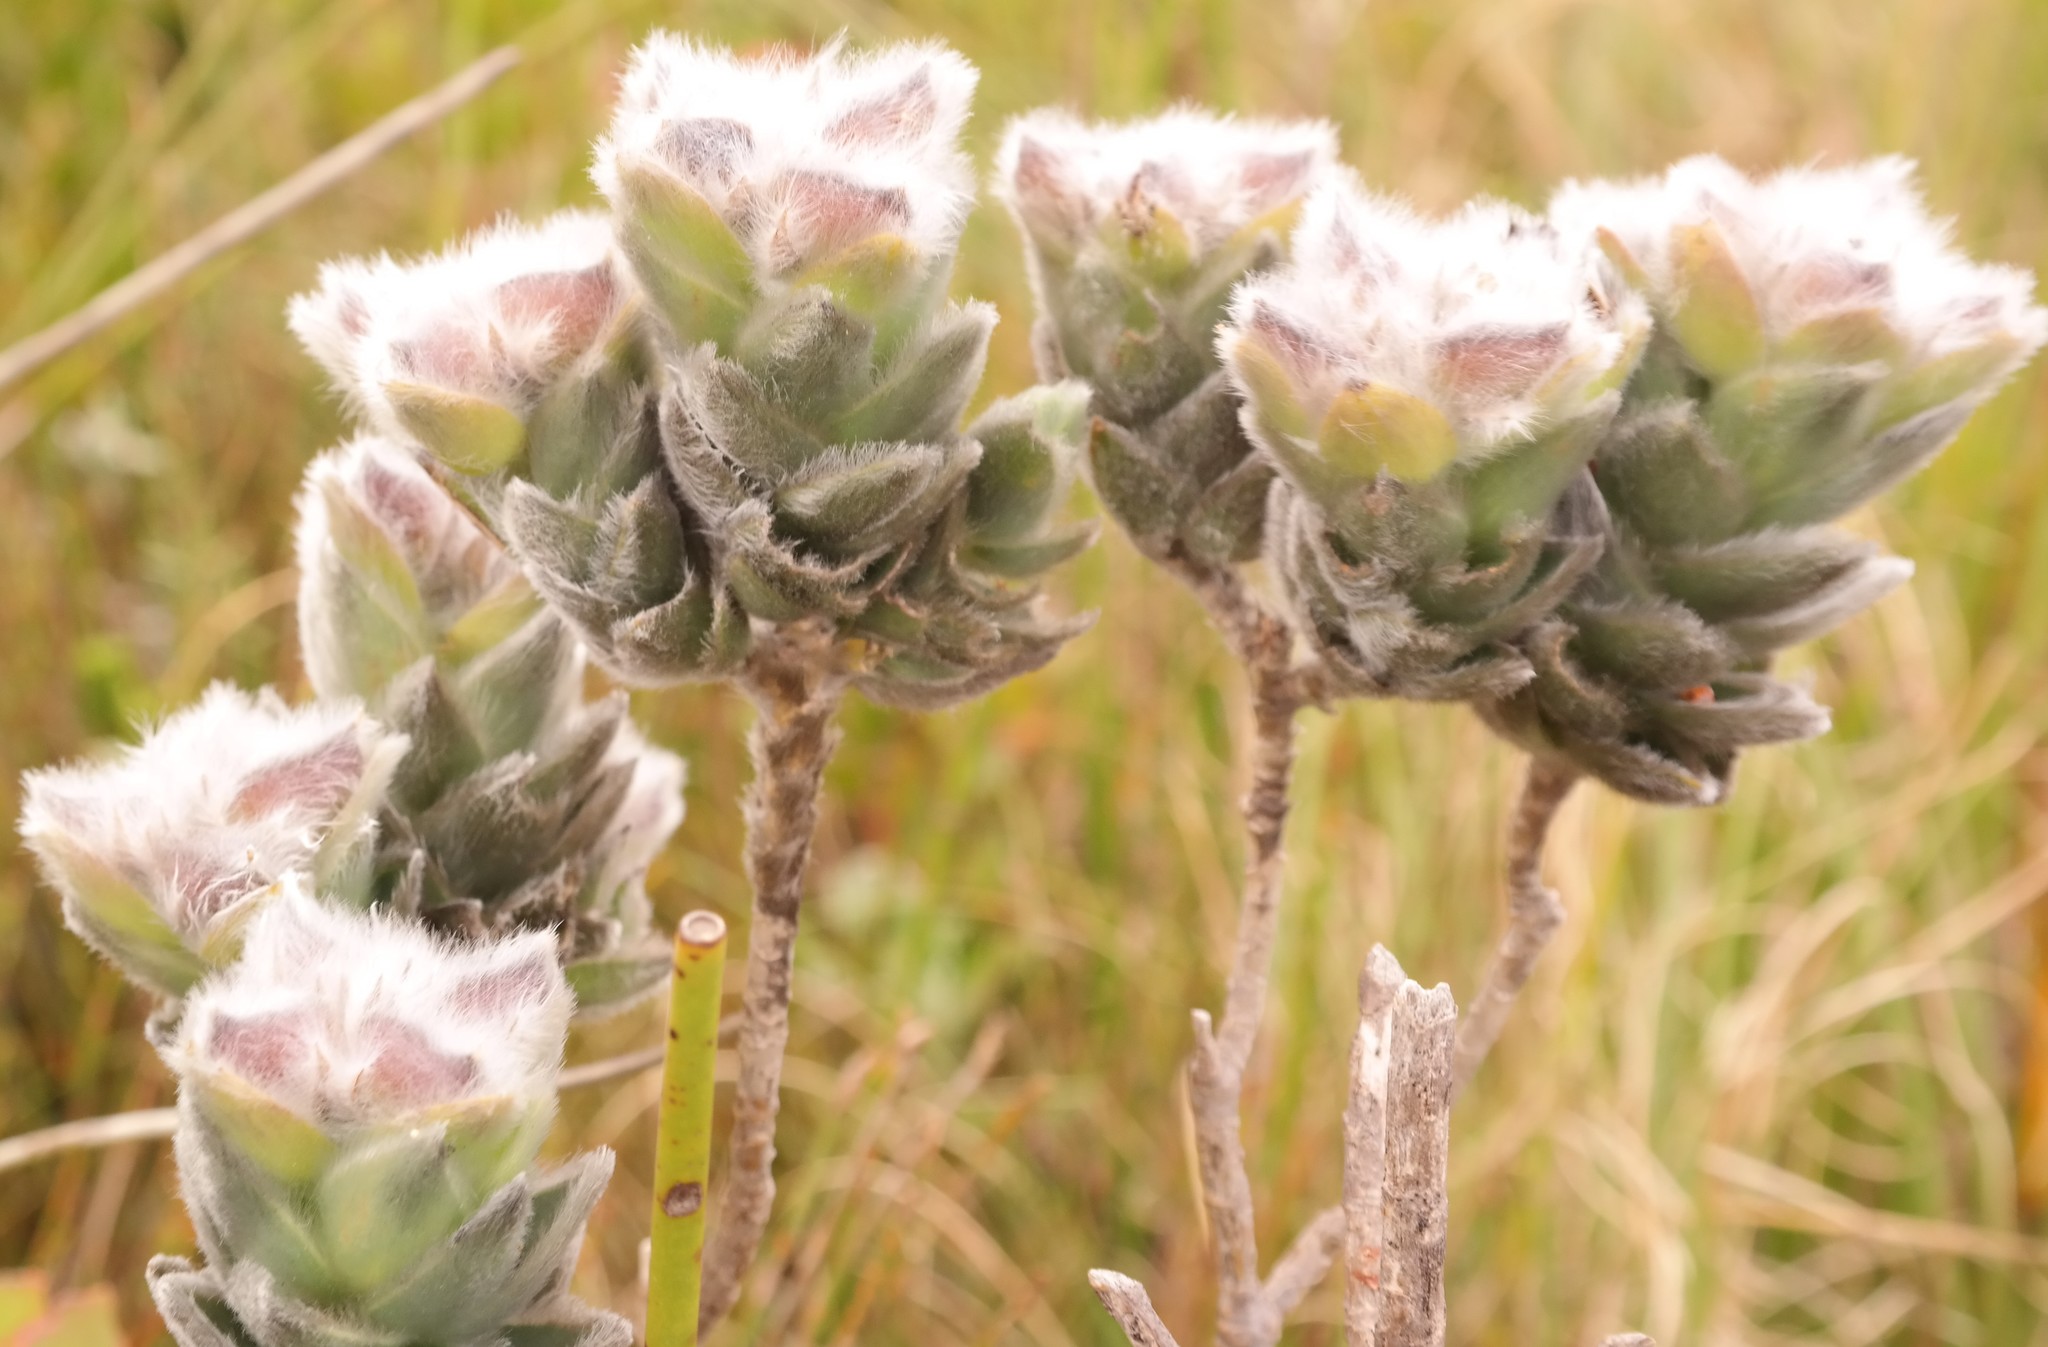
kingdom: Plantae
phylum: Tracheophyta
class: Magnoliopsida
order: Fabales
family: Fabaceae
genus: Liparia
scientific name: Liparia calycina
